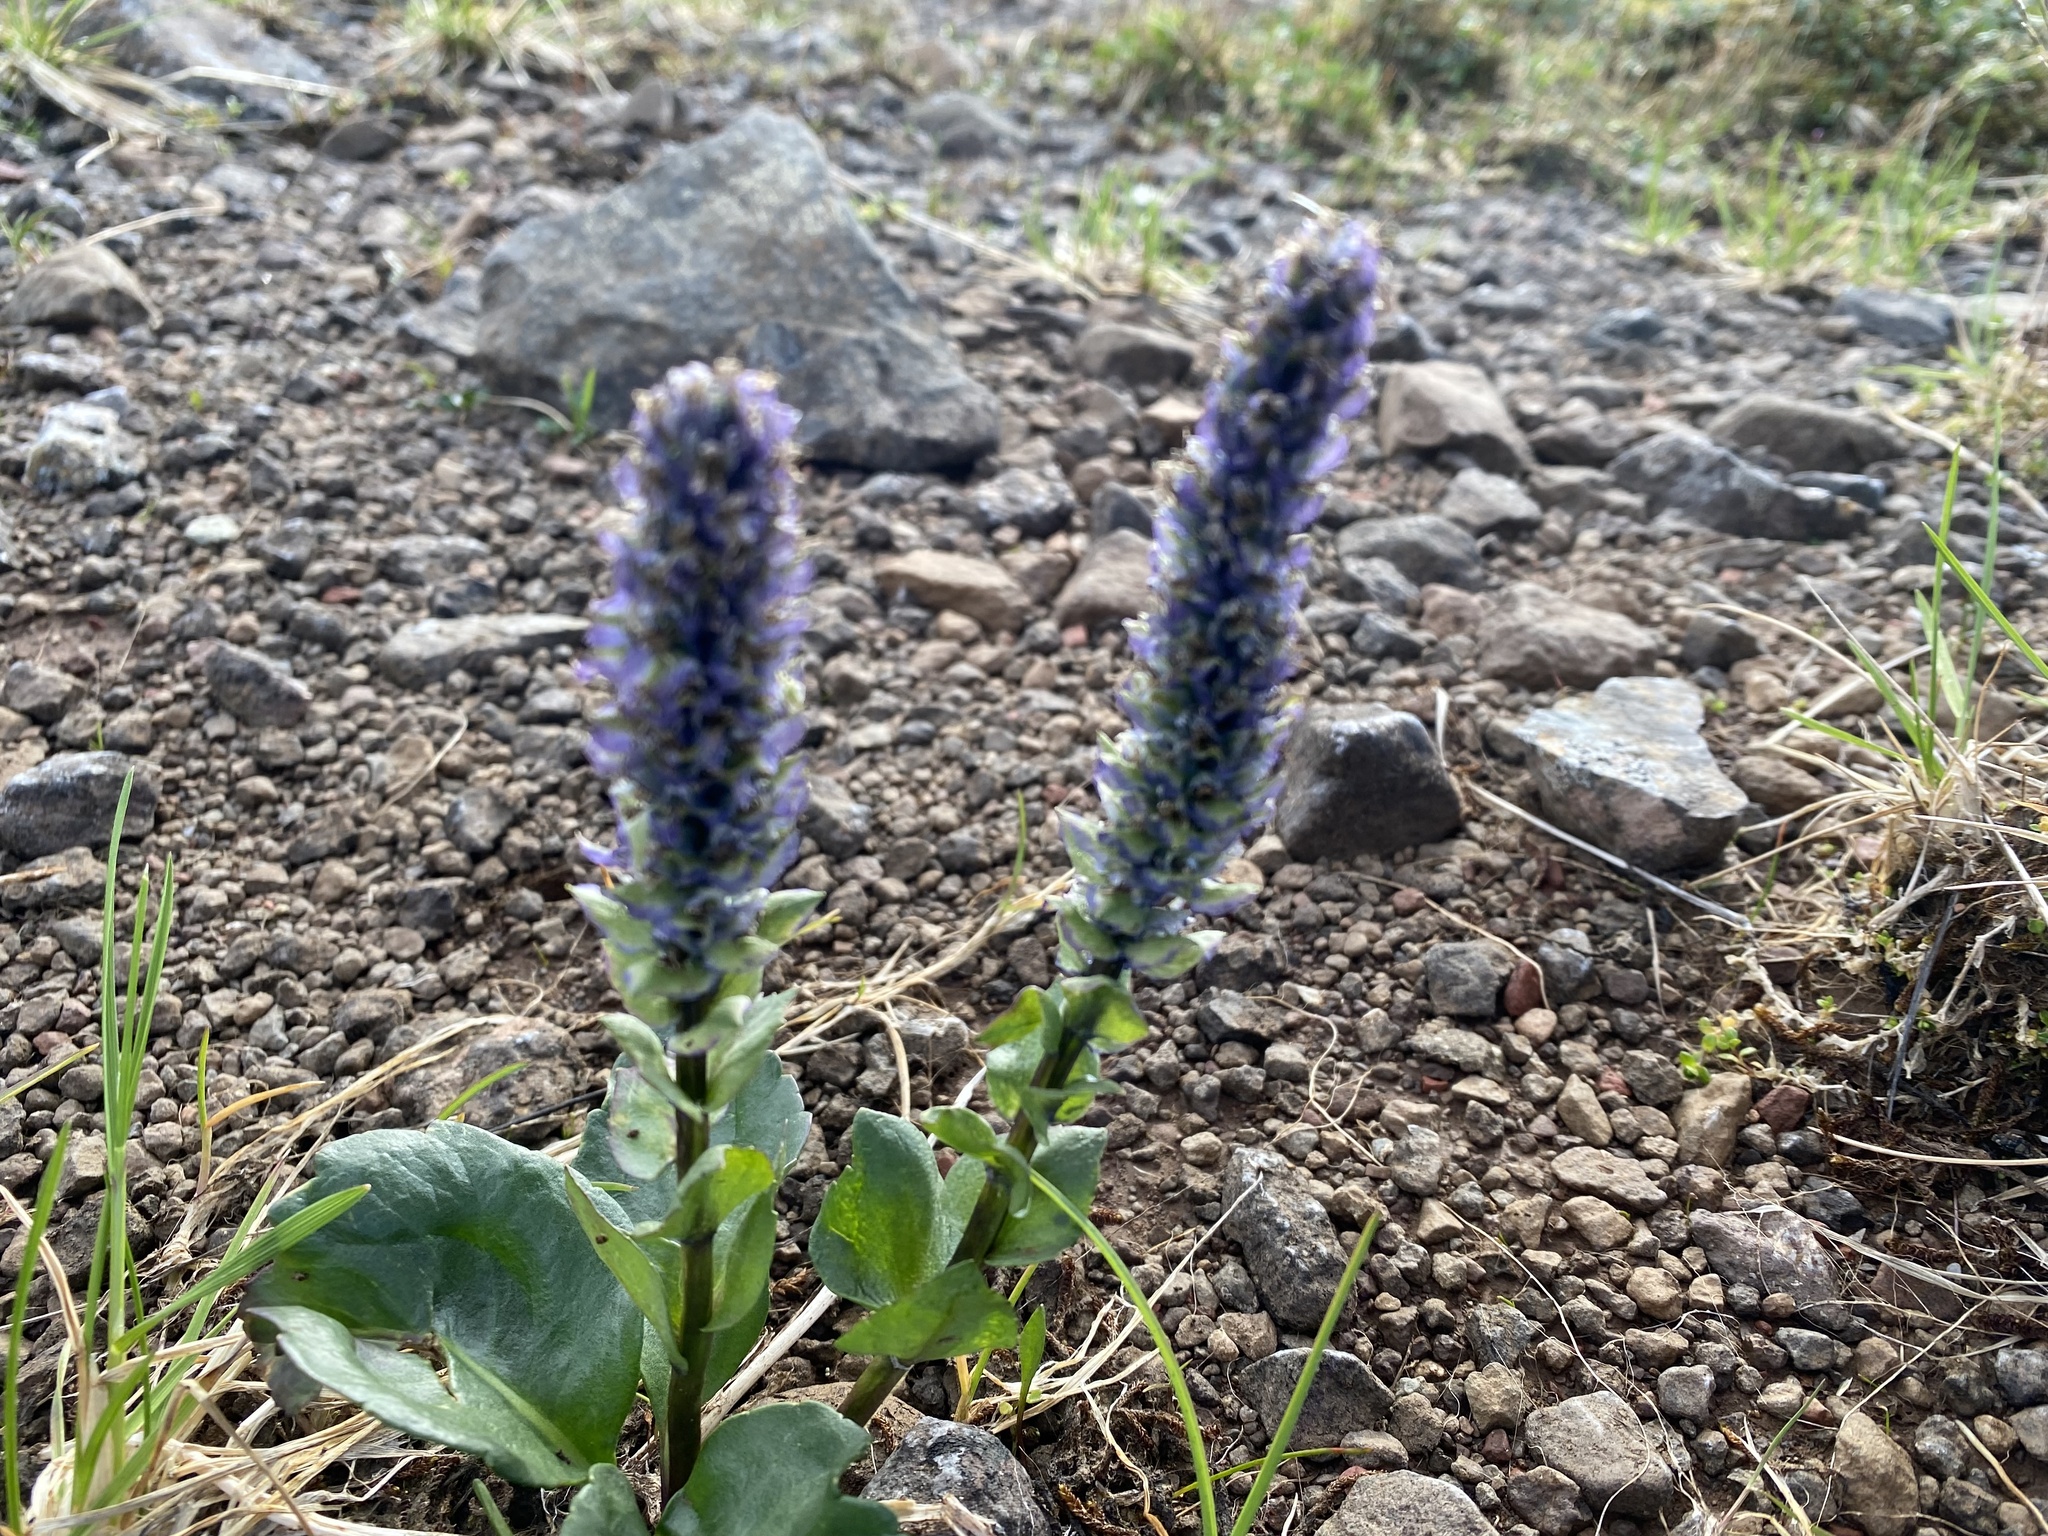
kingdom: Plantae
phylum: Tracheophyta
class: Magnoliopsida
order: Lamiales
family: Plantaginaceae
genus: Lagotis
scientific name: Lagotis glauca
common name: Glaucous weaselsnout
